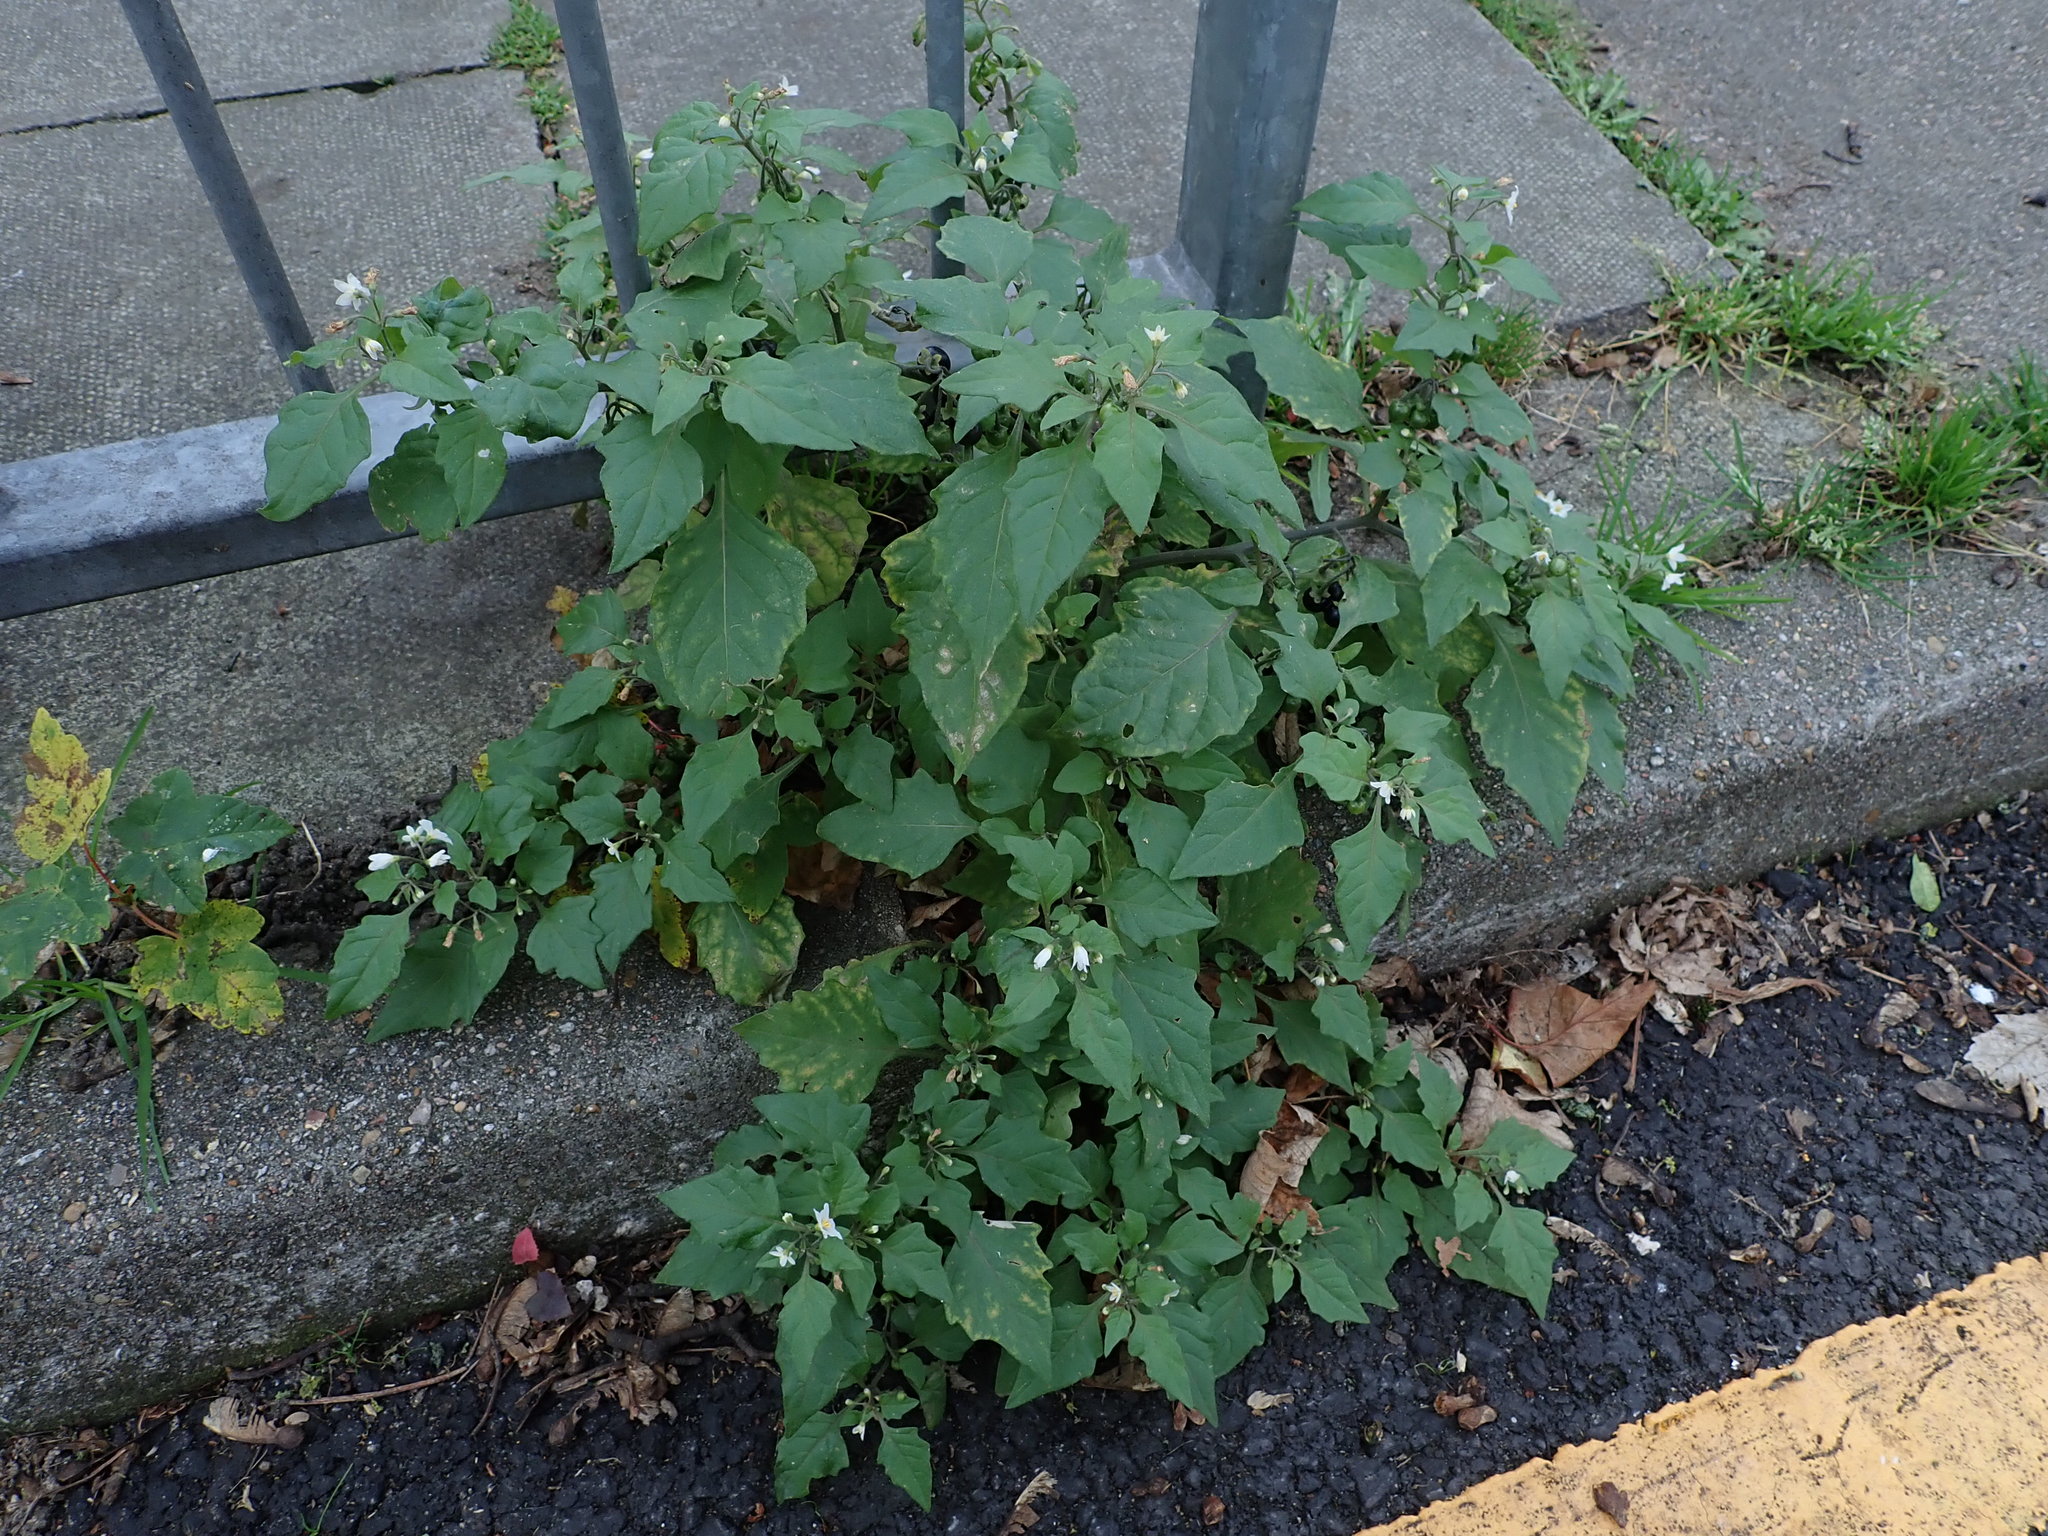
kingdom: Plantae
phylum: Tracheophyta
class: Magnoliopsida
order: Solanales
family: Solanaceae
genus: Solanum
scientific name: Solanum nigrum
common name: Black nightshade
